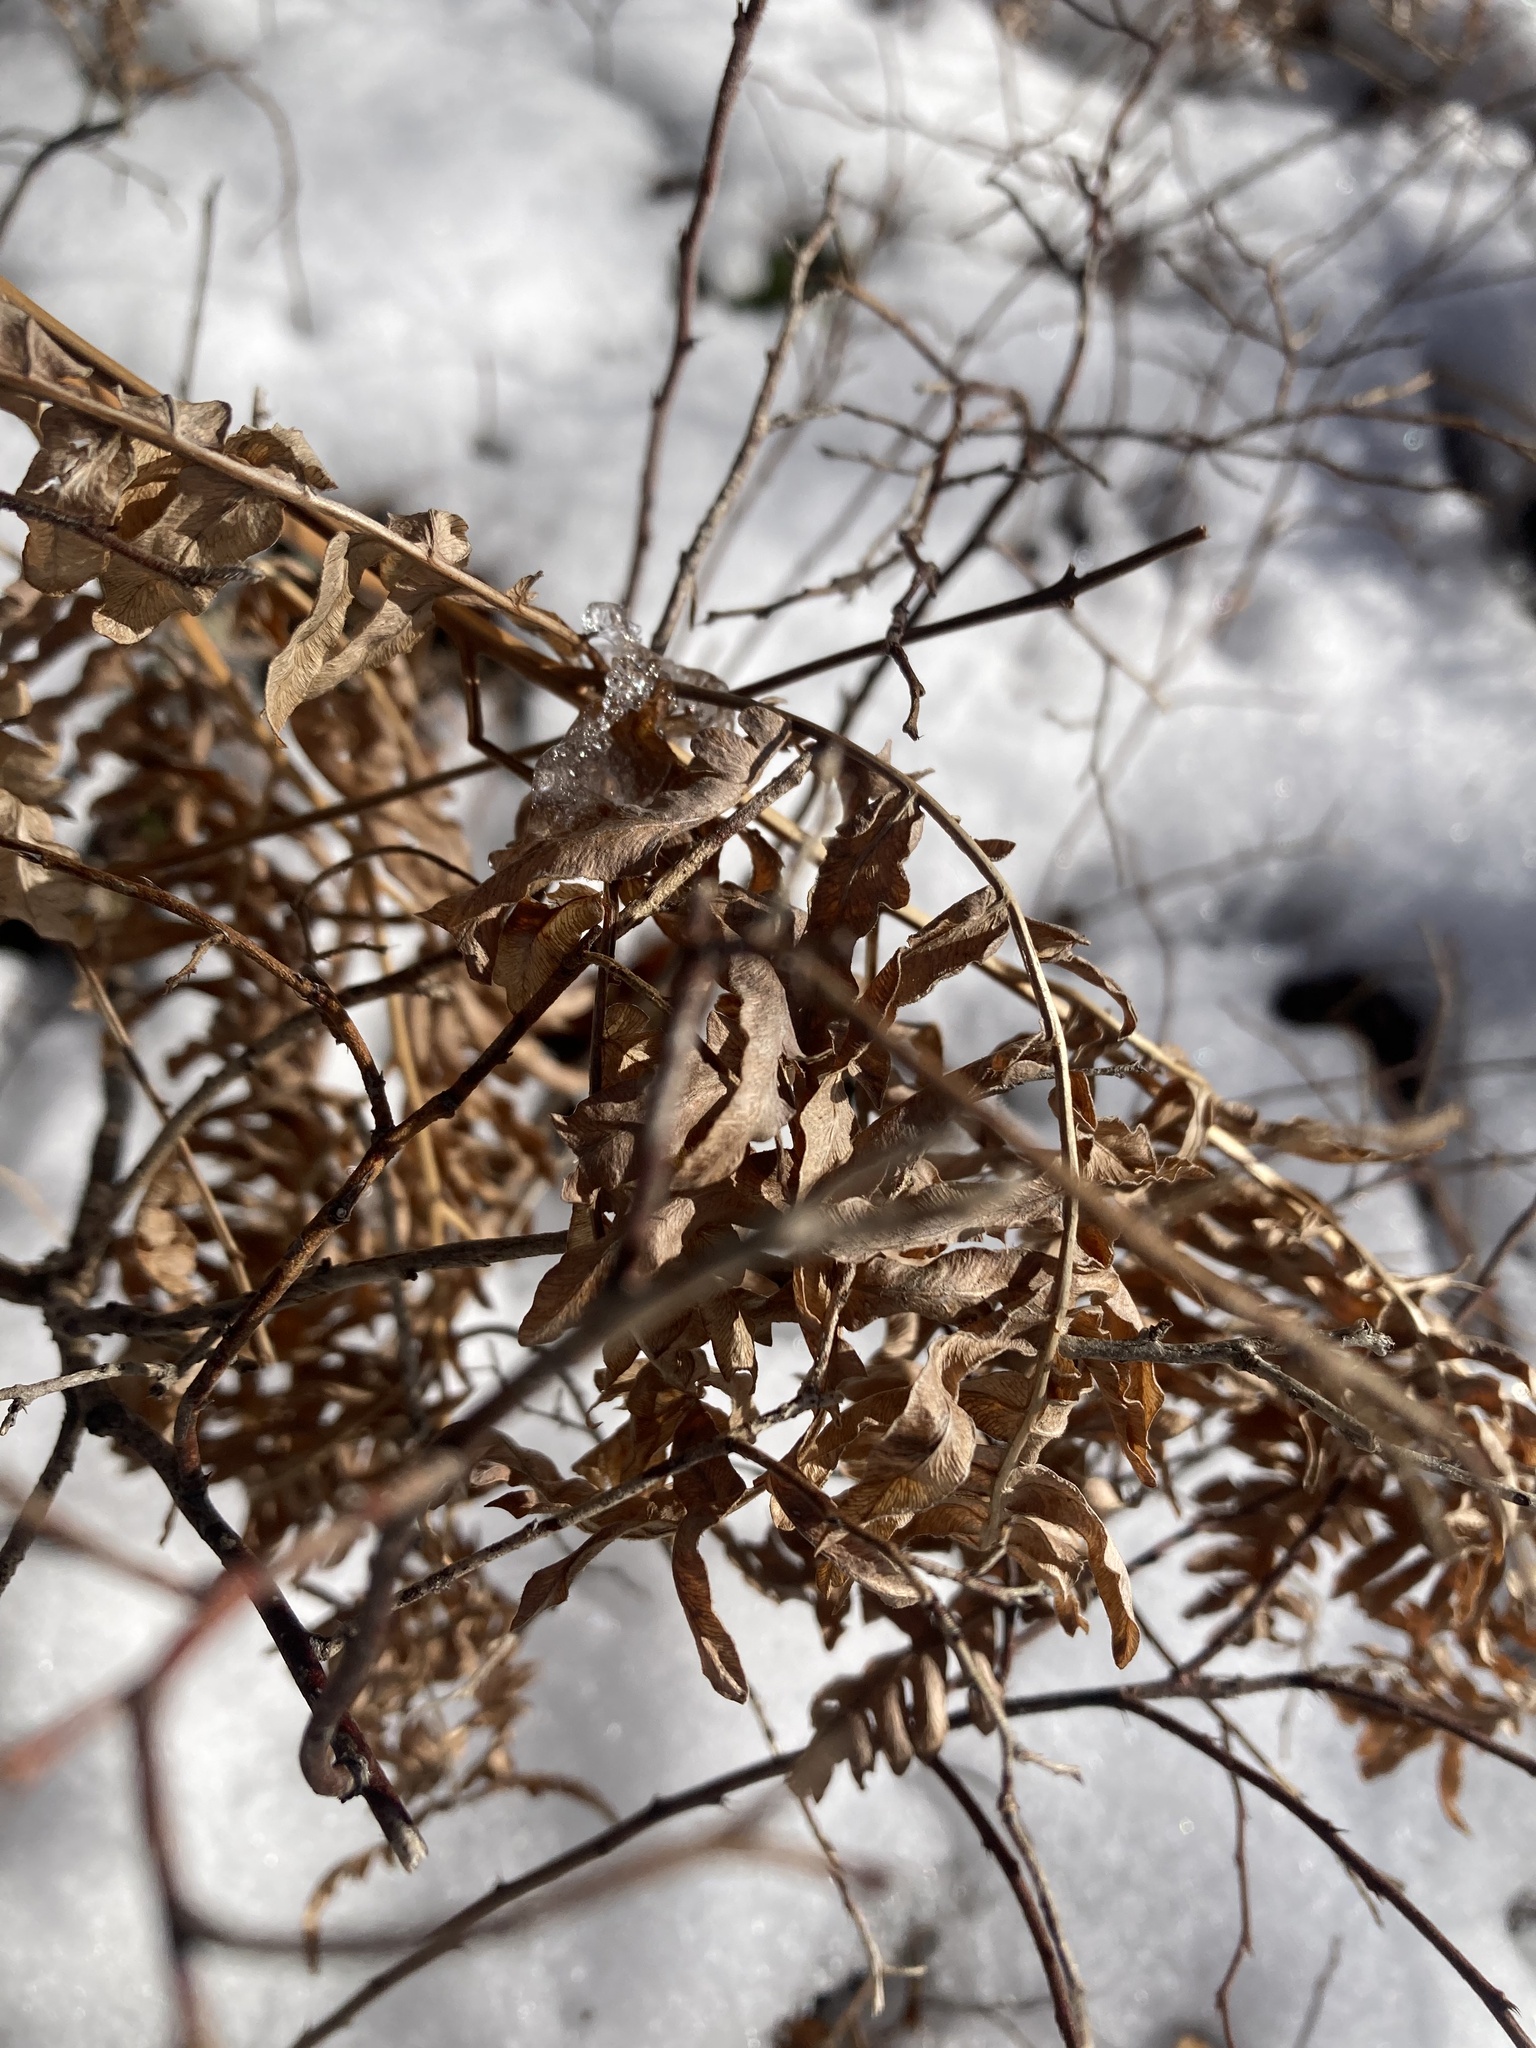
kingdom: Plantae
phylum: Tracheophyta
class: Polypodiopsida
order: Polypodiales
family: Dennstaedtiaceae
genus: Pteridium
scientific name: Pteridium aquilinum
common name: Bracken
